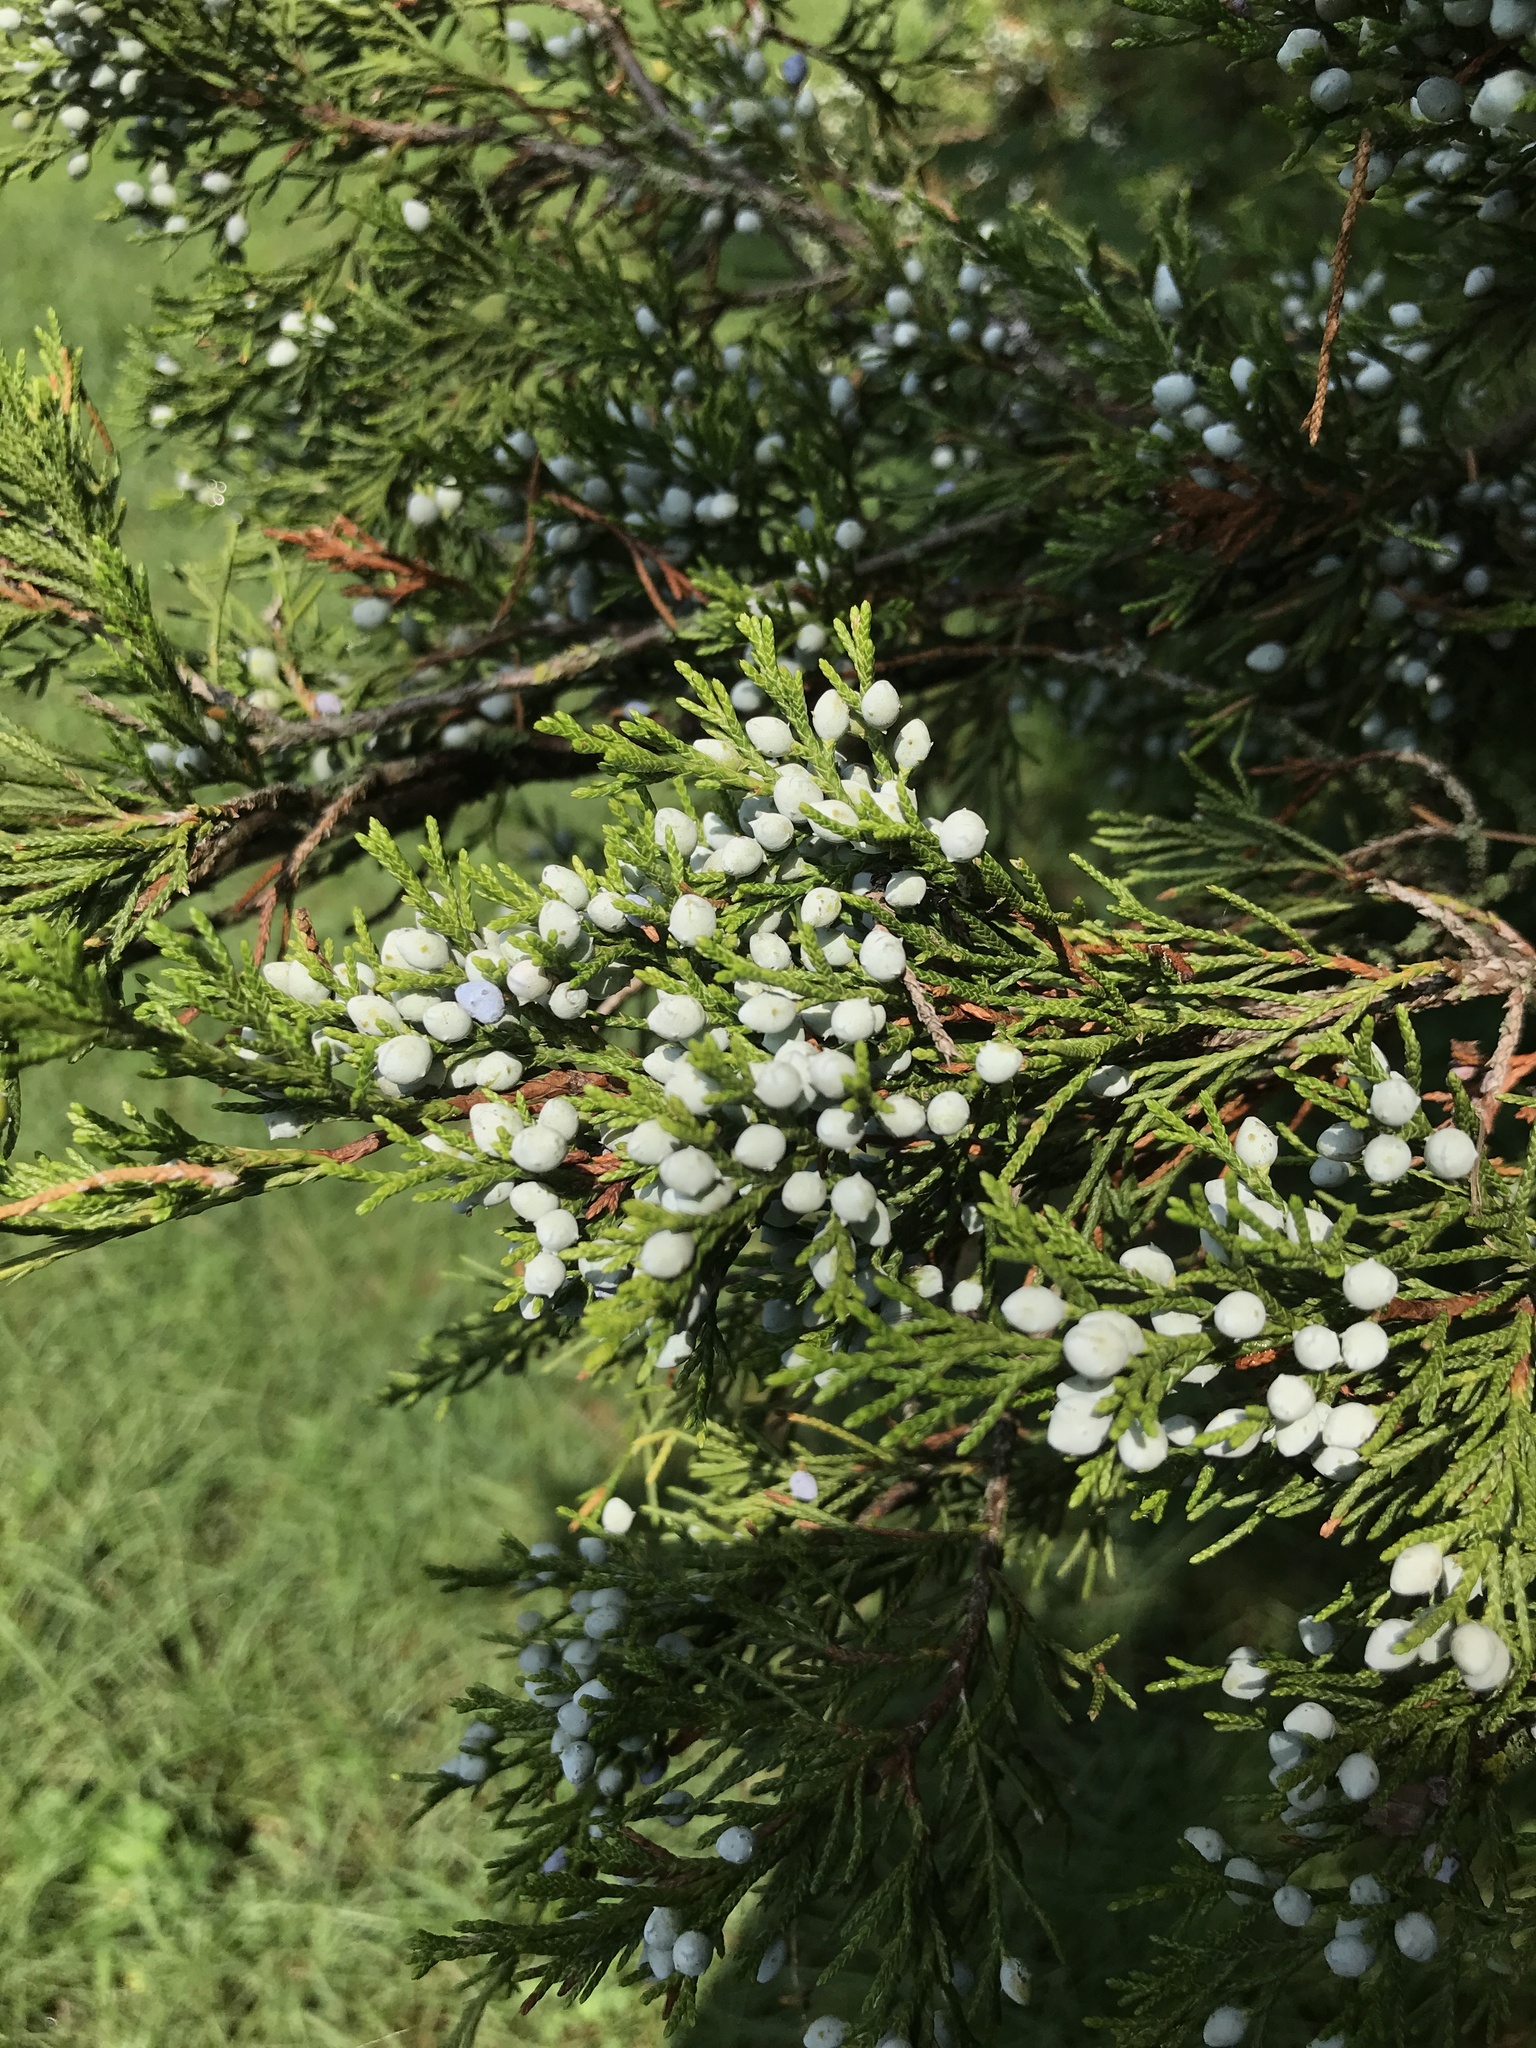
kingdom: Plantae
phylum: Tracheophyta
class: Pinopsida
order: Pinales
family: Cupressaceae
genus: Juniperus
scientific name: Juniperus virginiana
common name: Red juniper
